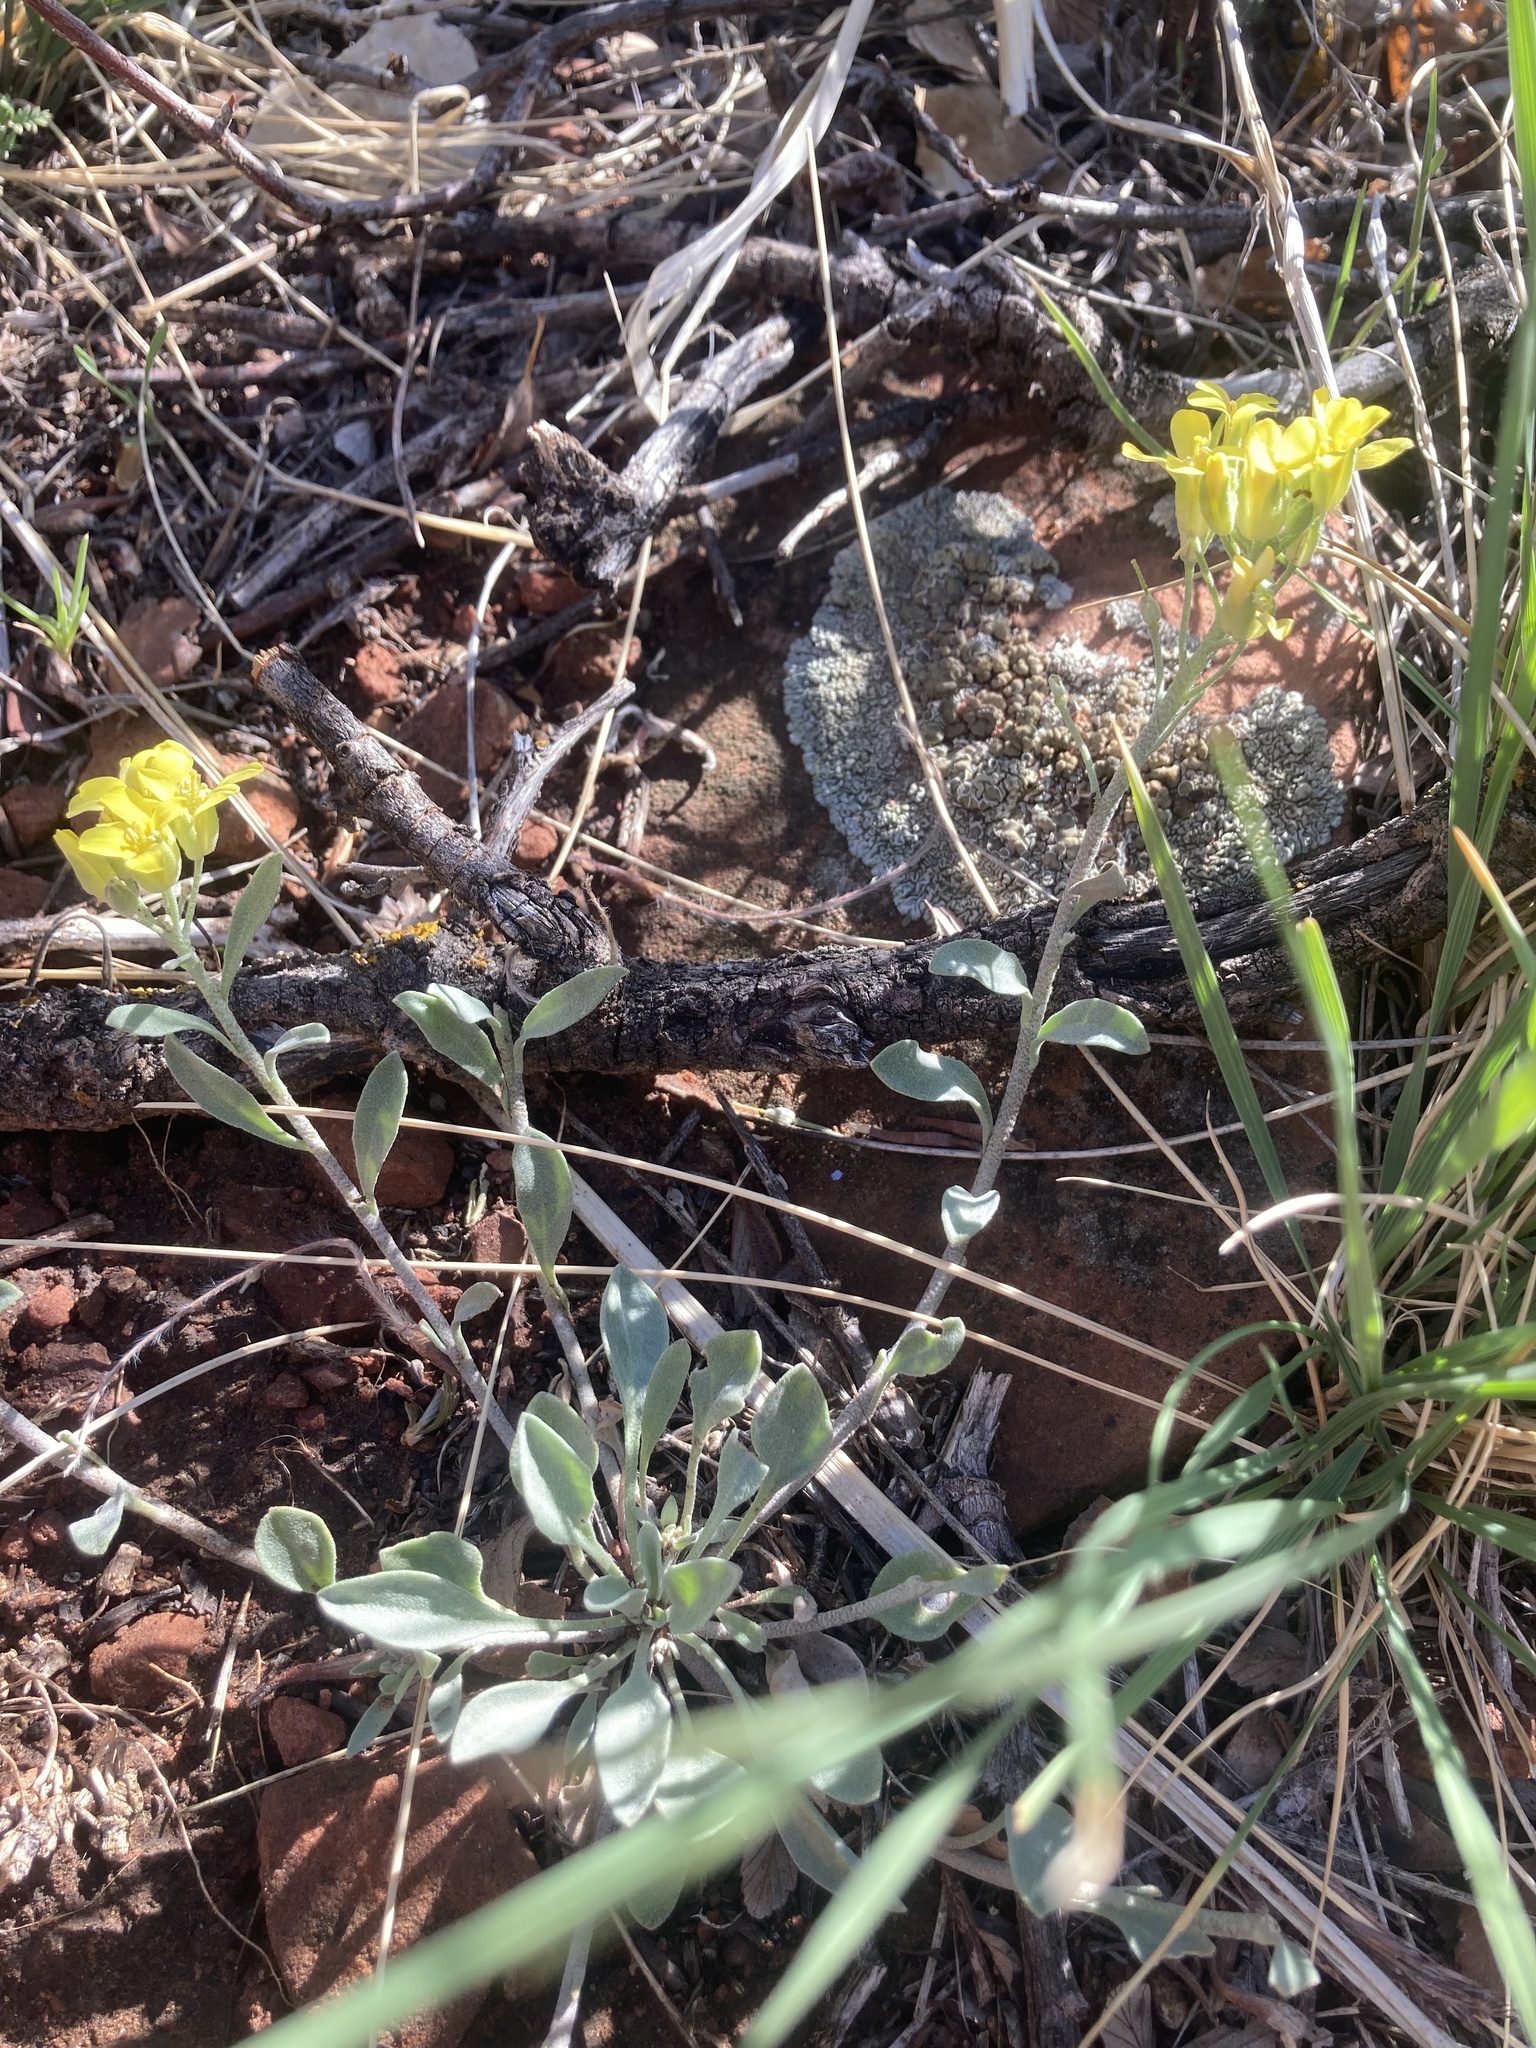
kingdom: Plantae
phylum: Tracheophyta
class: Magnoliopsida
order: Brassicales
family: Brassicaceae
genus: Physaria
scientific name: Physaria montana
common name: Mountain bladderpod
